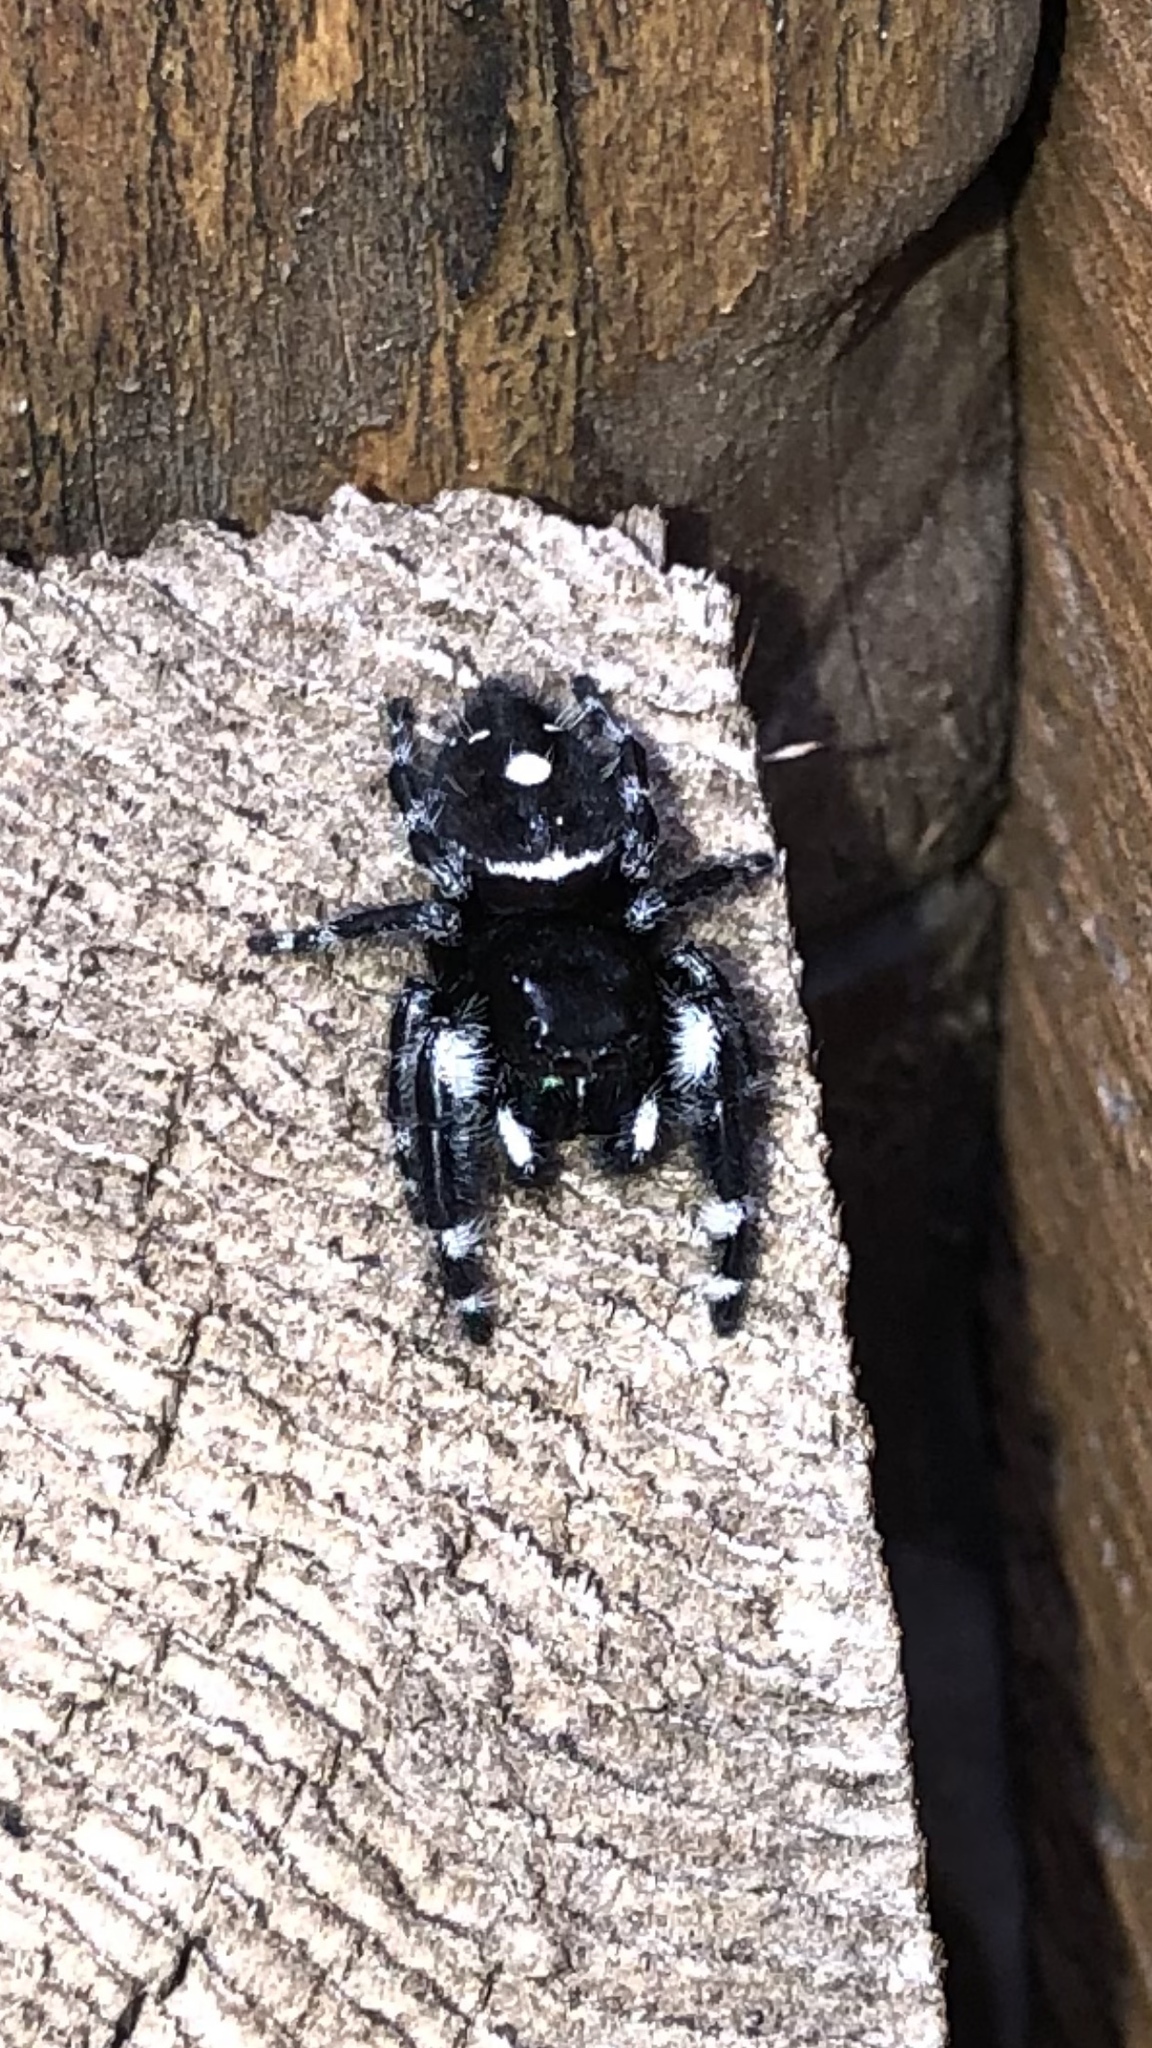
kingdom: Animalia
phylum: Arthropoda
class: Arachnida
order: Araneae
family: Salticidae
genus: Phidippus
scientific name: Phidippus audax
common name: Bold jumper
